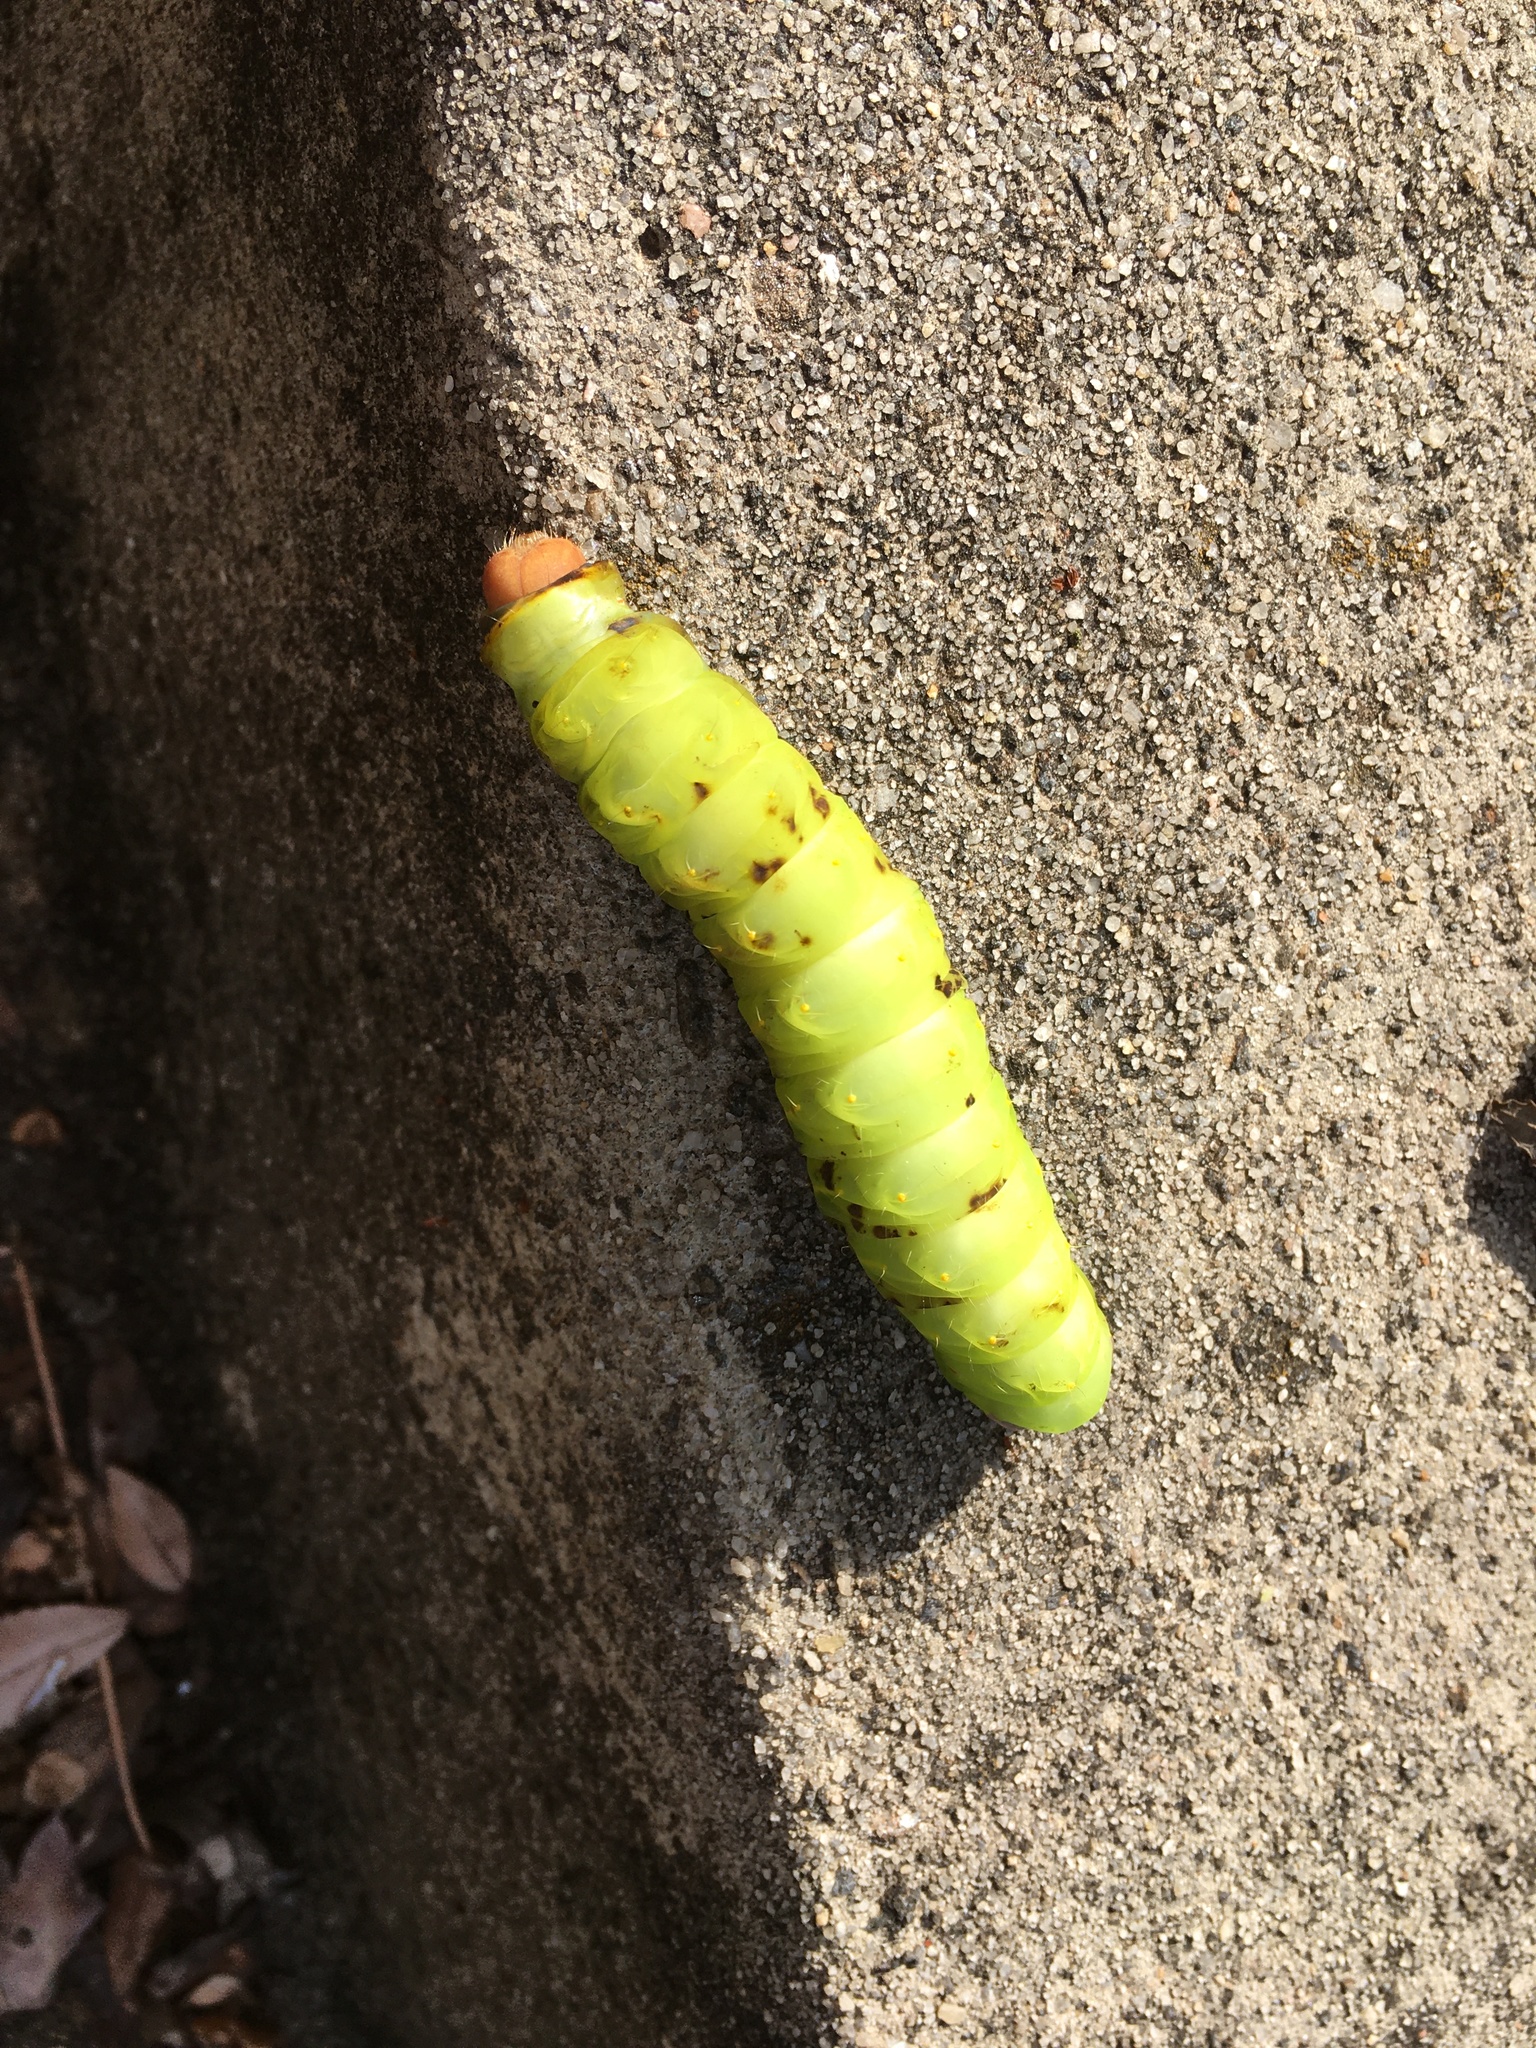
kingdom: Animalia
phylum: Arthropoda
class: Insecta
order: Lepidoptera
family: Saturniidae
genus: Antheraea
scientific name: Antheraea polyphemus
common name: Polyphemus moth
